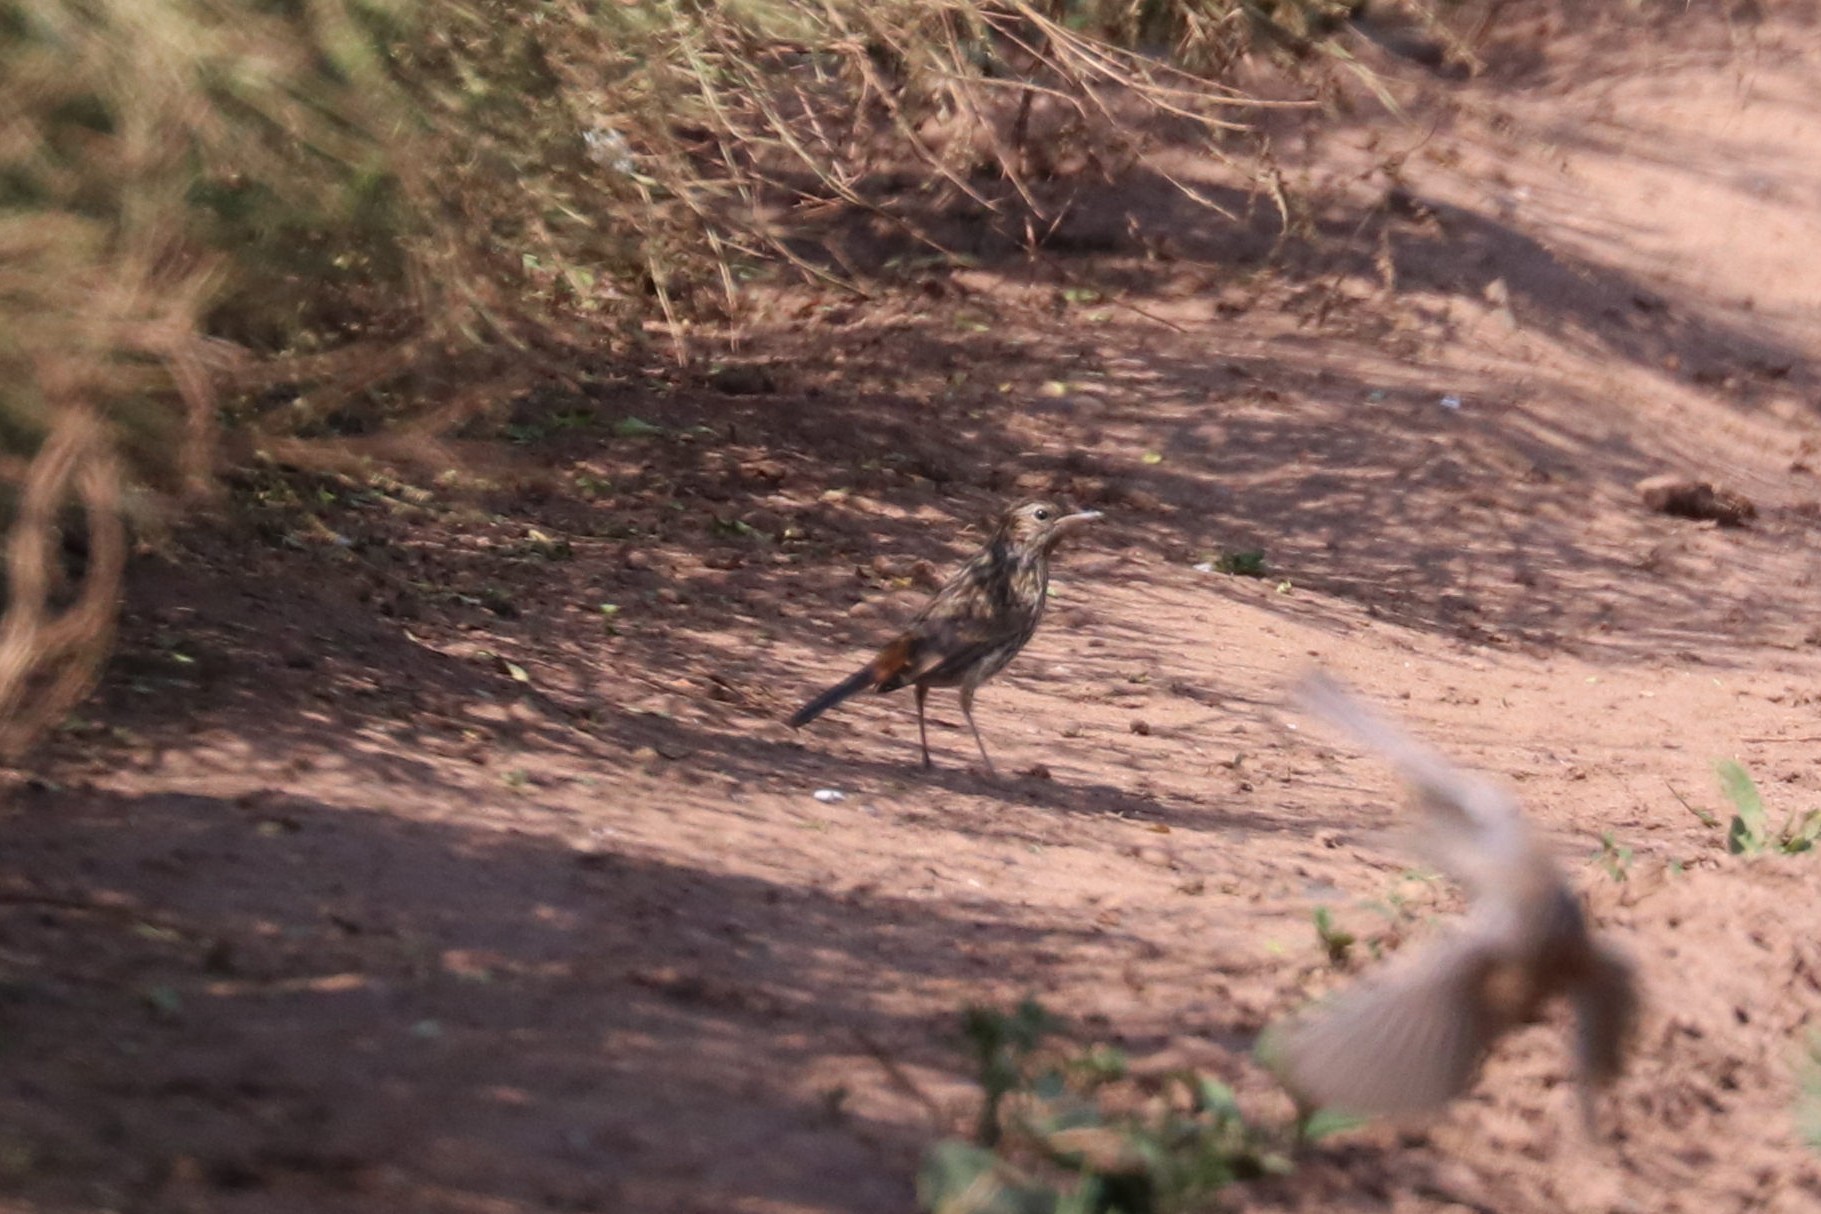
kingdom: Animalia
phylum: Chordata
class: Aves
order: Passeriformes
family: Muscicapidae
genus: Luscinia
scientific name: Luscinia svecica
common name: Bluethroat
